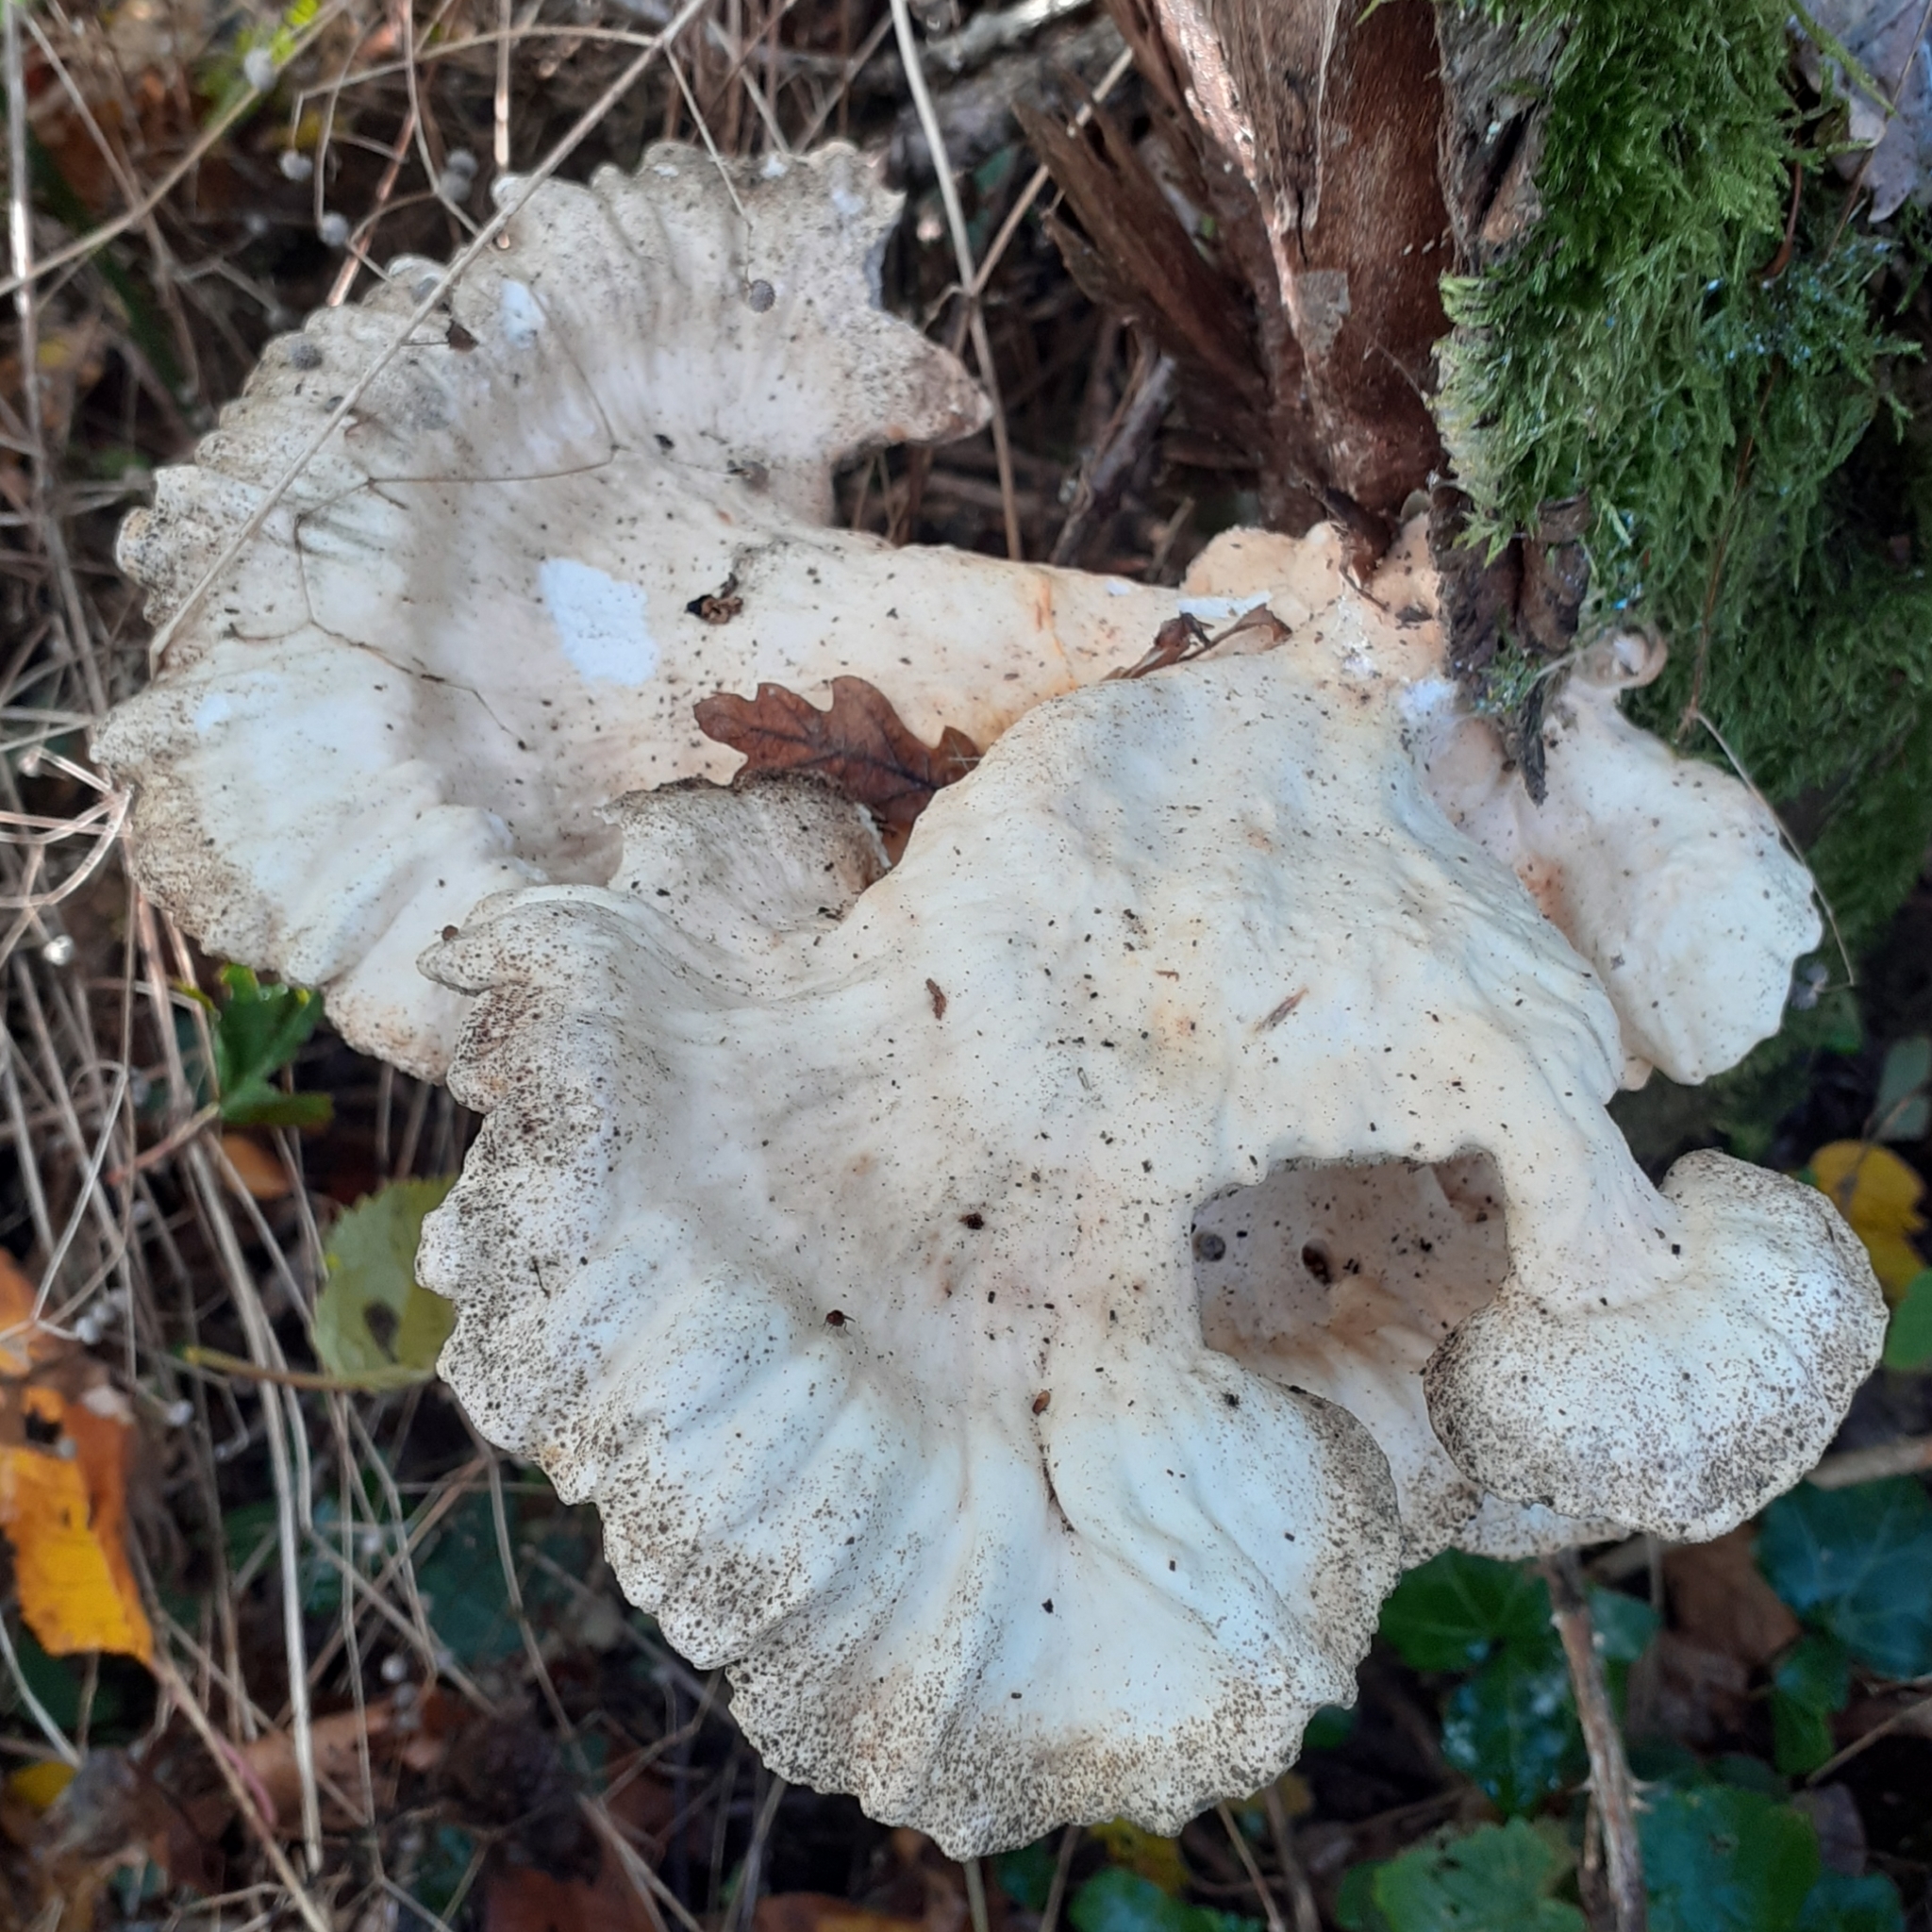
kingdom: Fungi
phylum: Basidiomycota
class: Agaricomycetes
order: Polyporales
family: Laetiporaceae
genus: Laetiporus
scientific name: Laetiporus sulphureus
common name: Chicken of the woods
